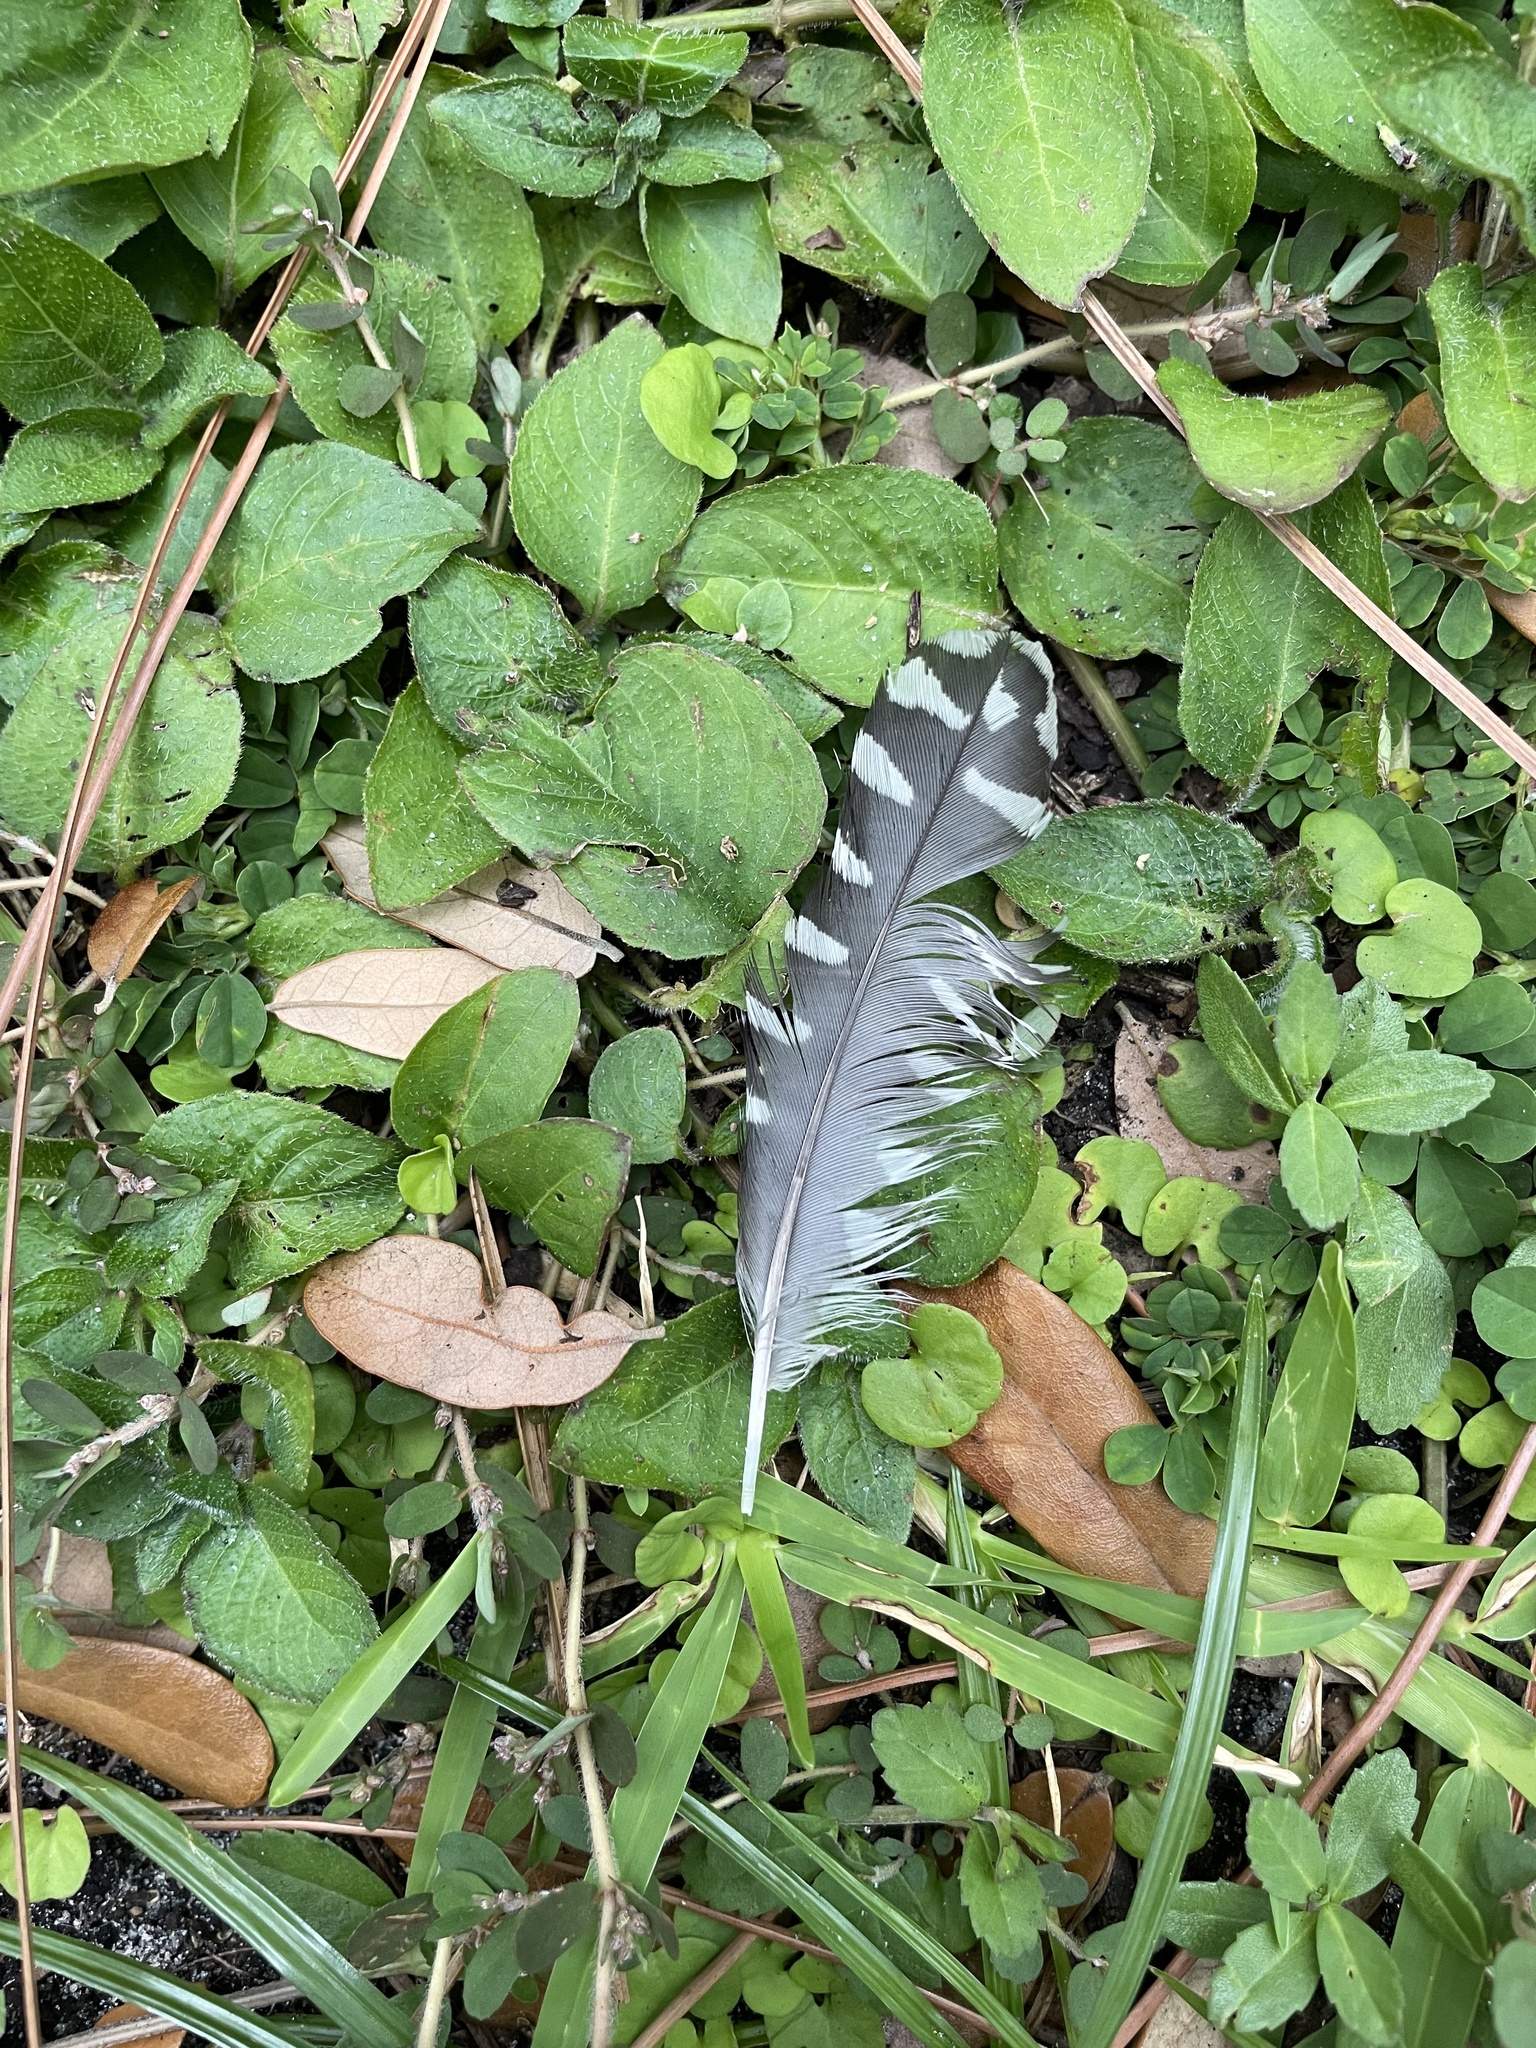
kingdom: Animalia
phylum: Chordata
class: Aves
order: Piciformes
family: Picidae
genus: Melanerpes
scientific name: Melanerpes carolinus
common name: Red-bellied woodpecker
